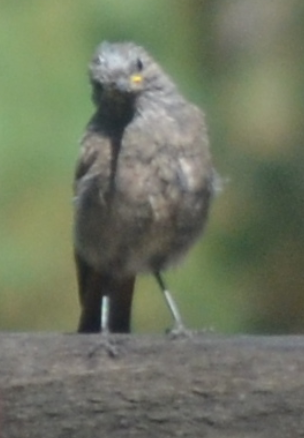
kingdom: Animalia
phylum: Chordata
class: Aves
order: Passeriformes
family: Muscicapidae
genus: Phoenicurus
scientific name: Phoenicurus ochruros
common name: Black redstart
